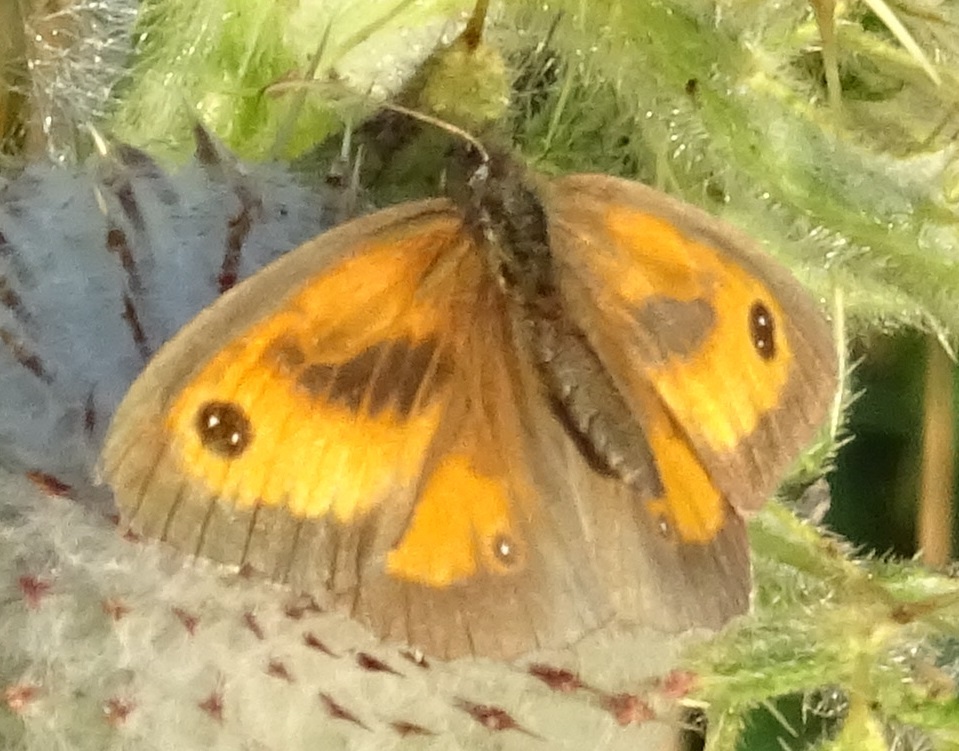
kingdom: Animalia
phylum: Arthropoda
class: Insecta
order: Lepidoptera
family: Nymphalidae
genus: Pyronia
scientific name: Pyronia tithonus
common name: Gatekeeper
